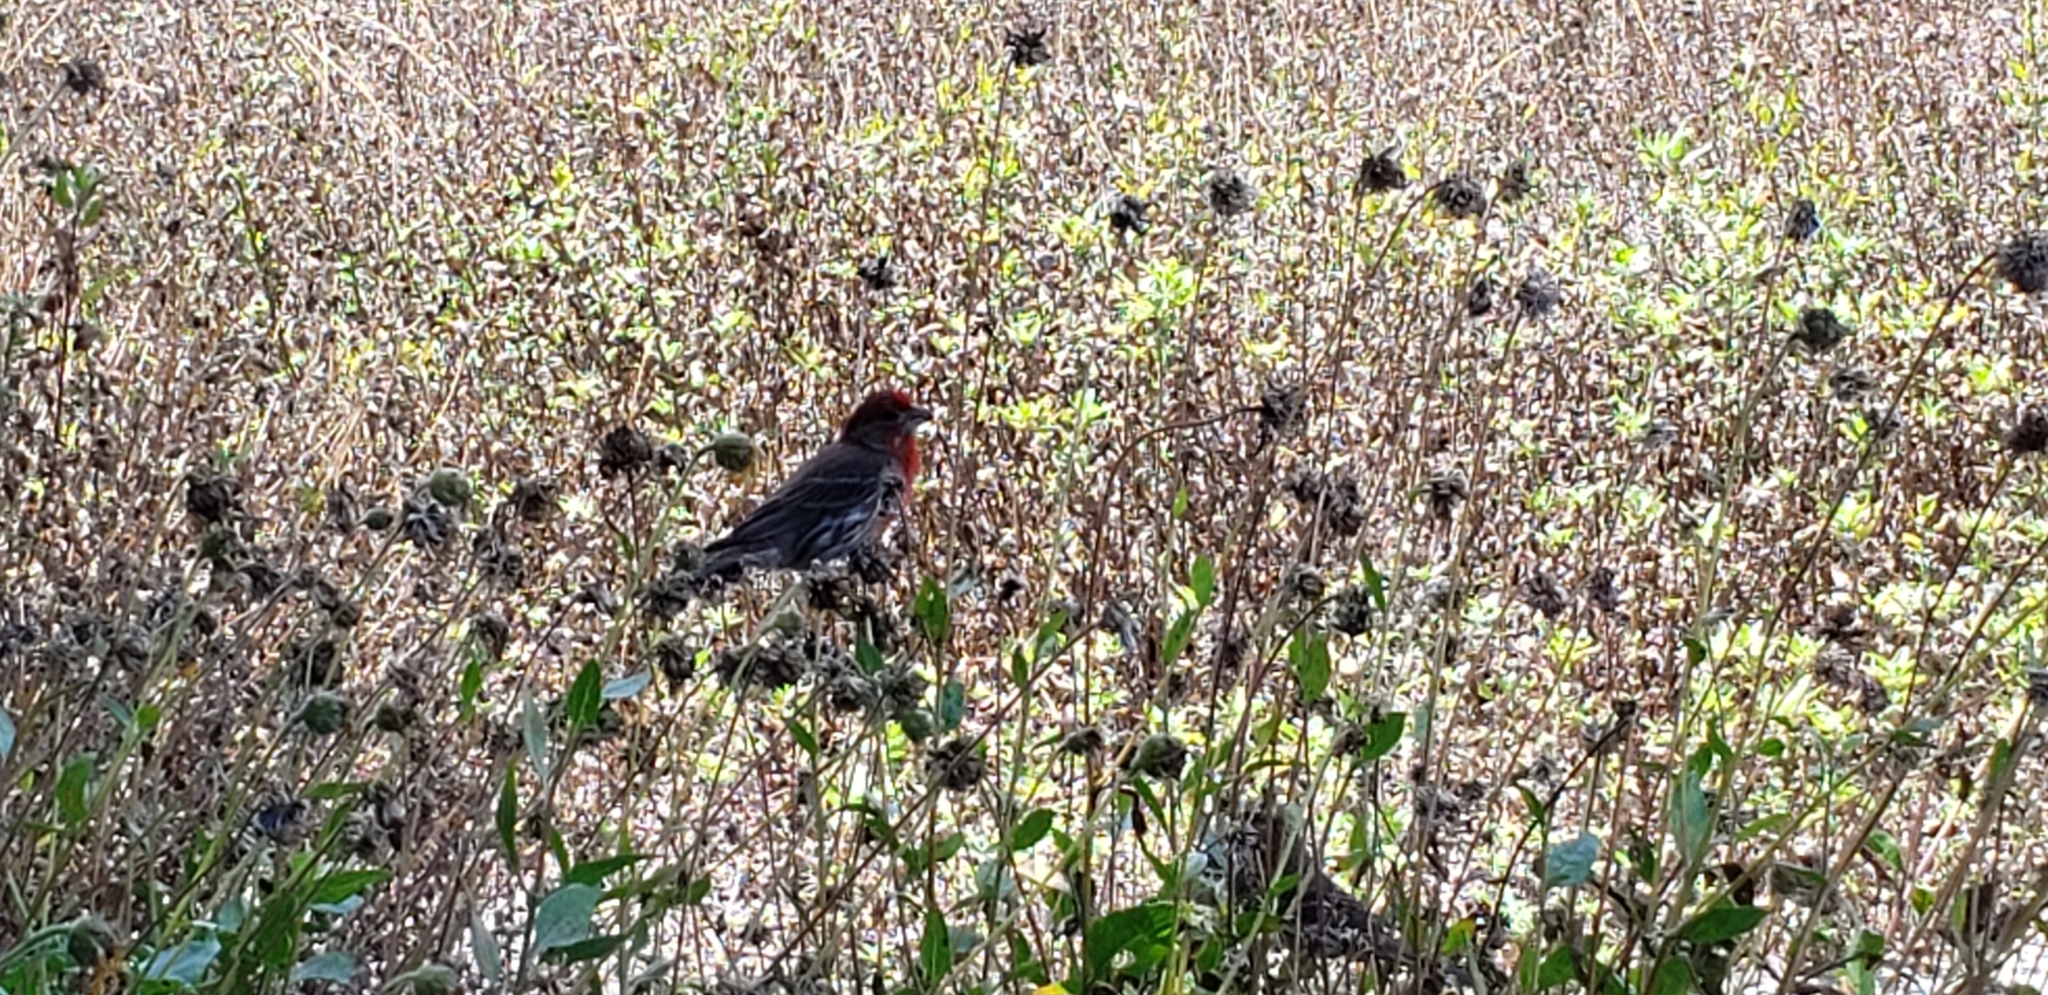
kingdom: Animalia
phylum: Chordata
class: Aves
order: Passeriformes
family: Fringillidae
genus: Haemorhous
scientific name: Haemorhous mexicanus
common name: House finch
